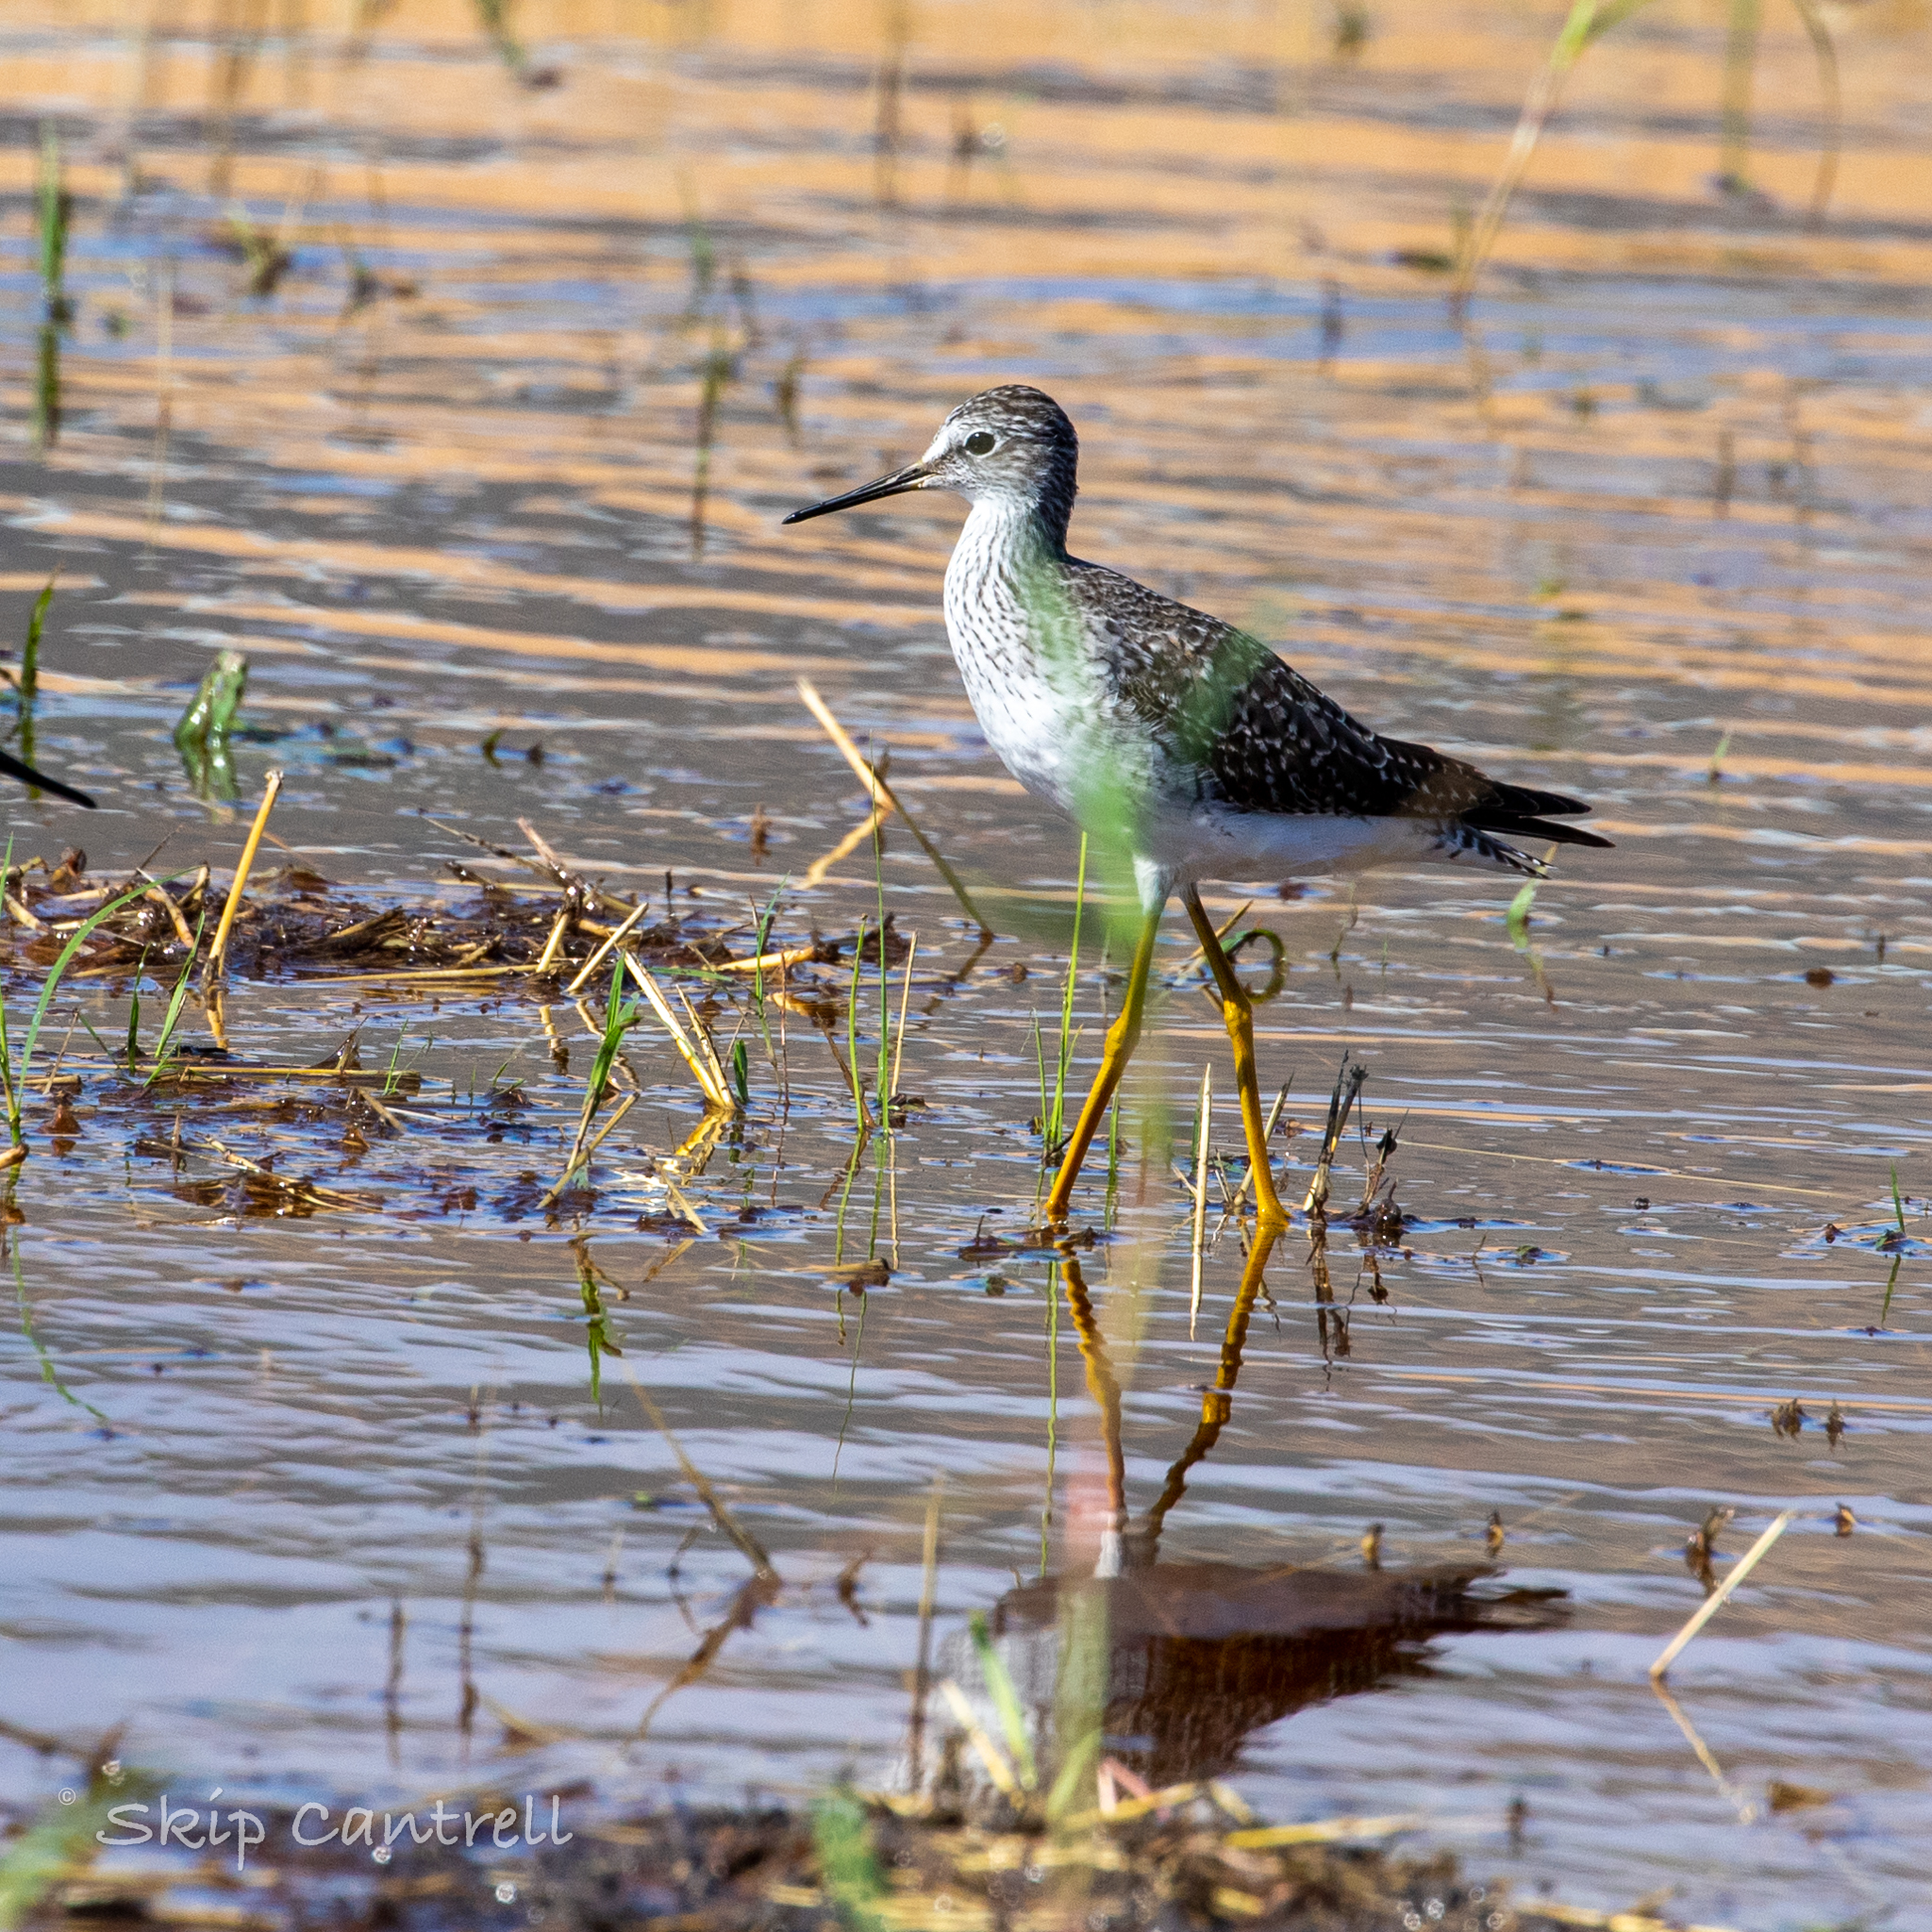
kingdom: Animalia
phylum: Chordata
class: Aves
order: Charadriiformes
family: Scolopacidae
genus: Tringa
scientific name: Tringa flavipes
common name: Lesser yellowlegs
